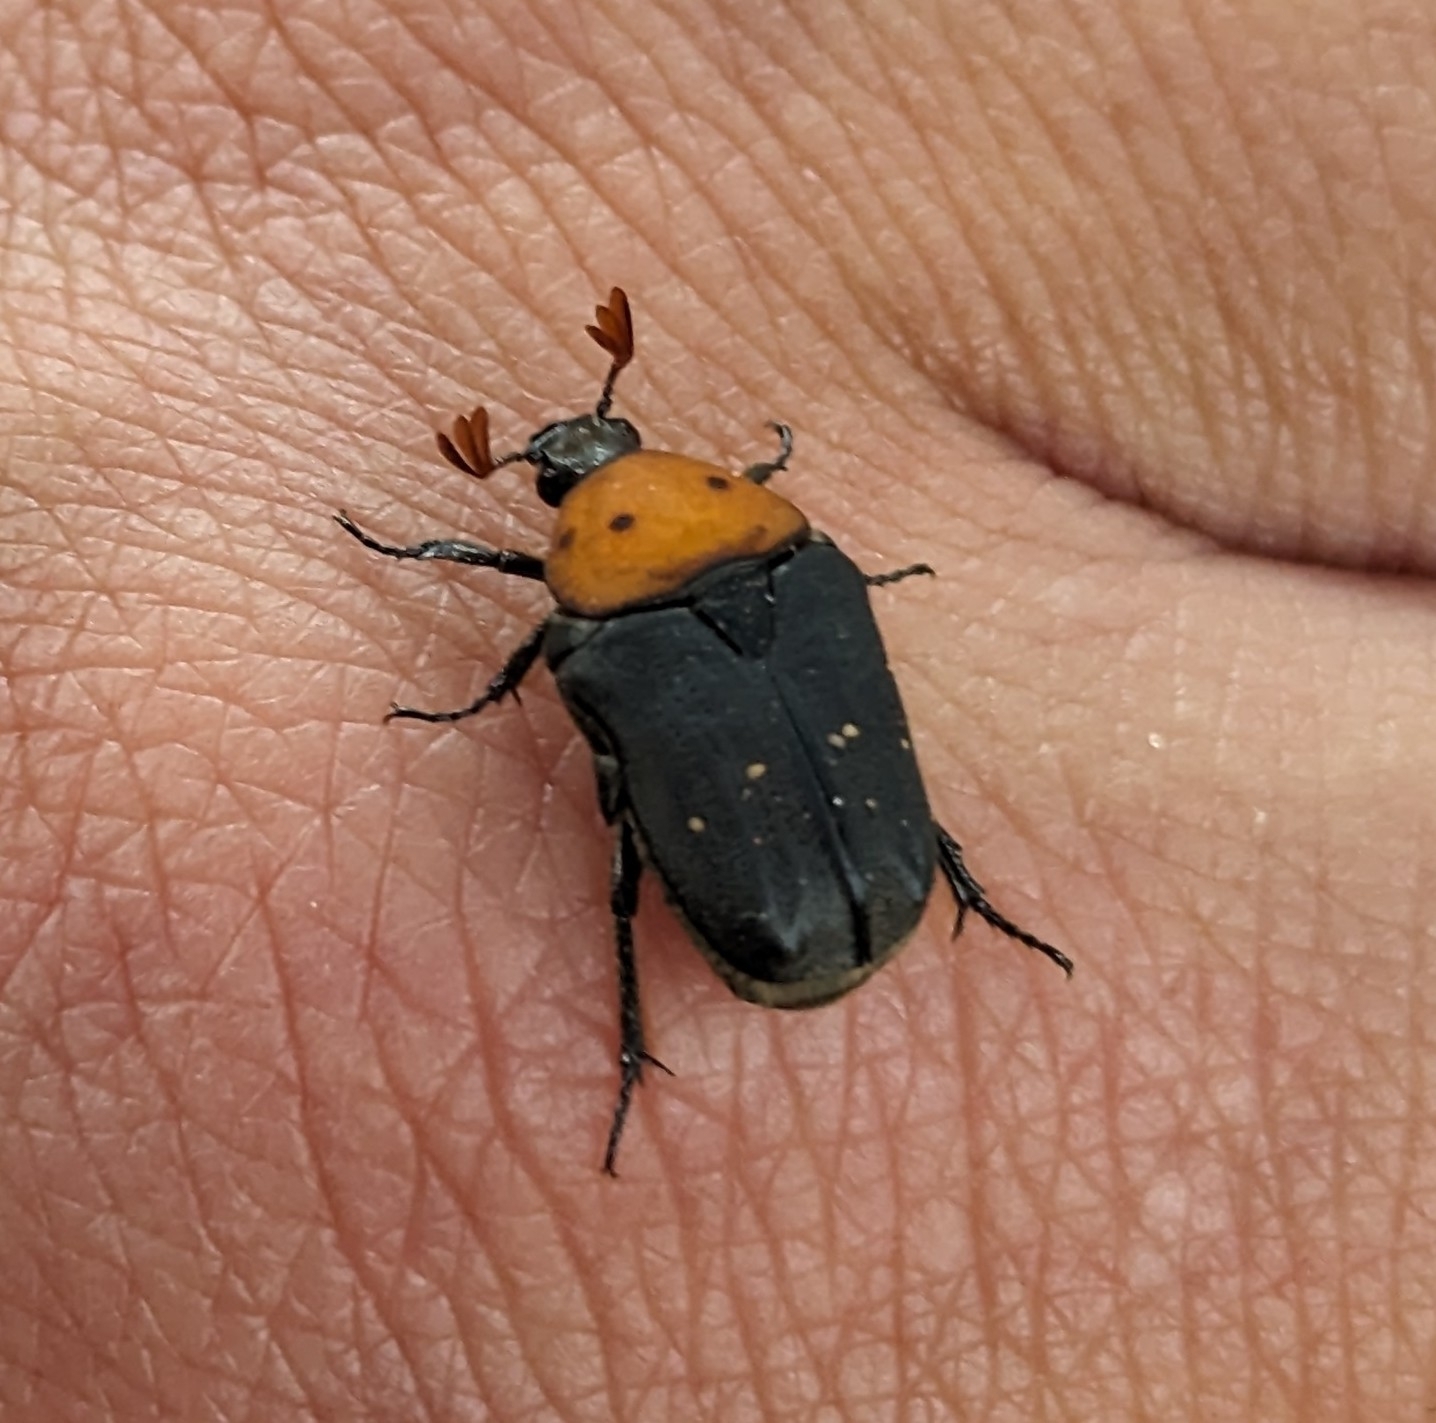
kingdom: Animalia
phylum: Arthropoda
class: Insecta
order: Coleoptera
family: Scarabaeidae
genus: Tephraea
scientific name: Tephraea dichroa
